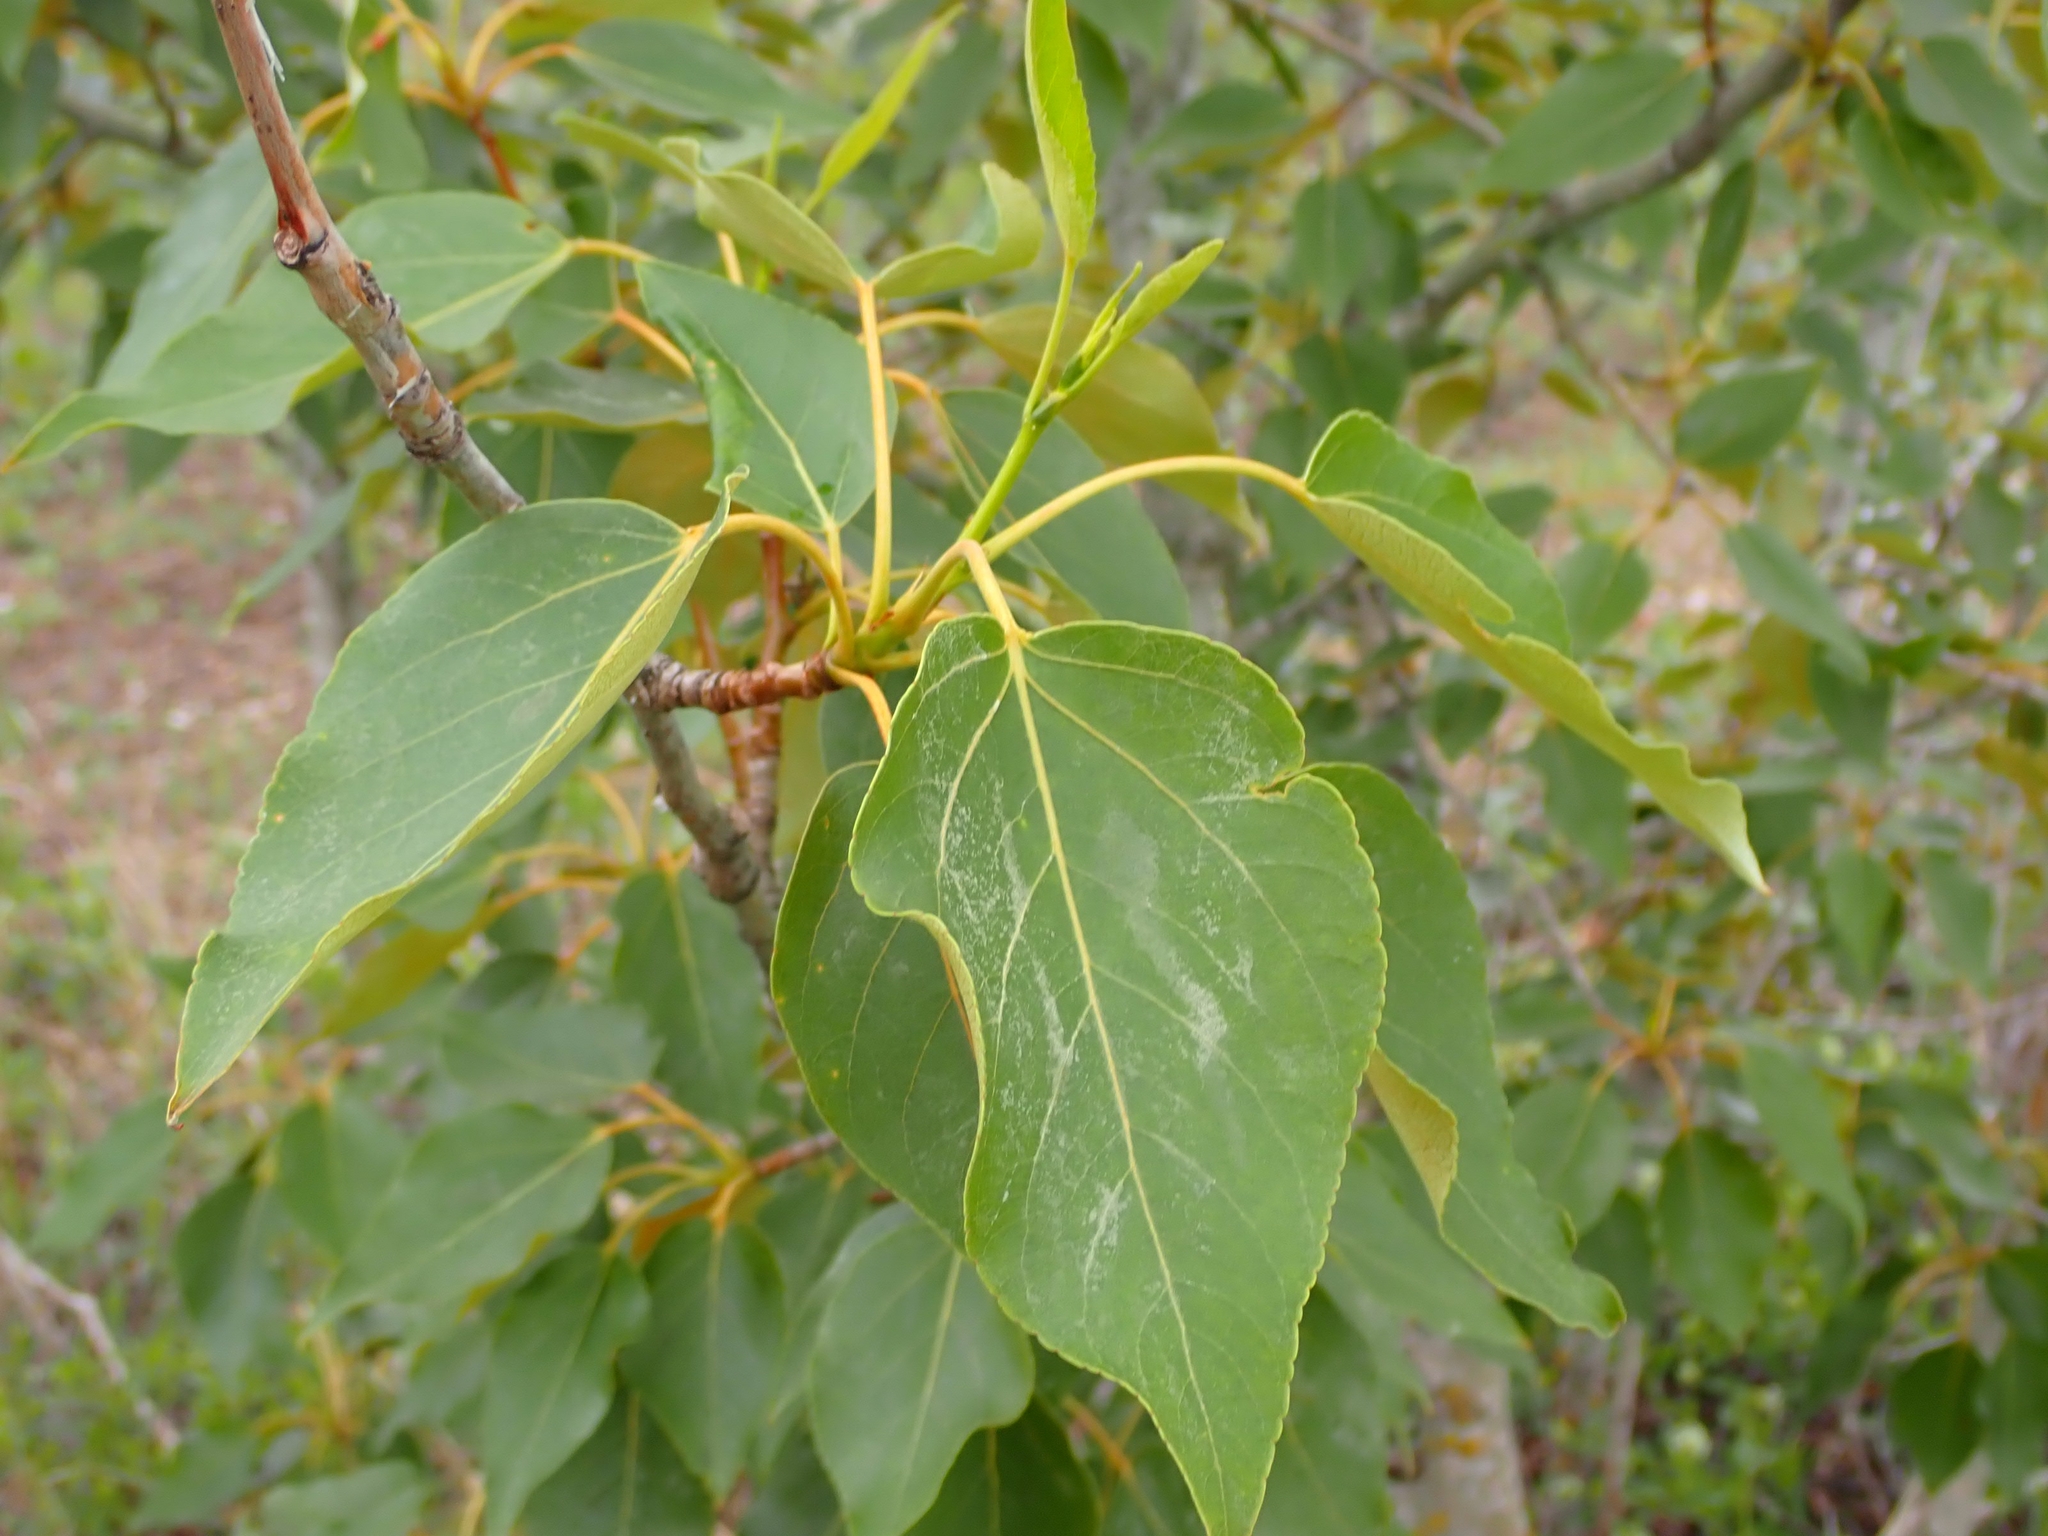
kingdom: Plantae
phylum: Tracheophyta
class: Magnoliopsida
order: Malpighiales
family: Salicaceae
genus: Populus
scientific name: Populus balsamifera
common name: Balsam poplar
